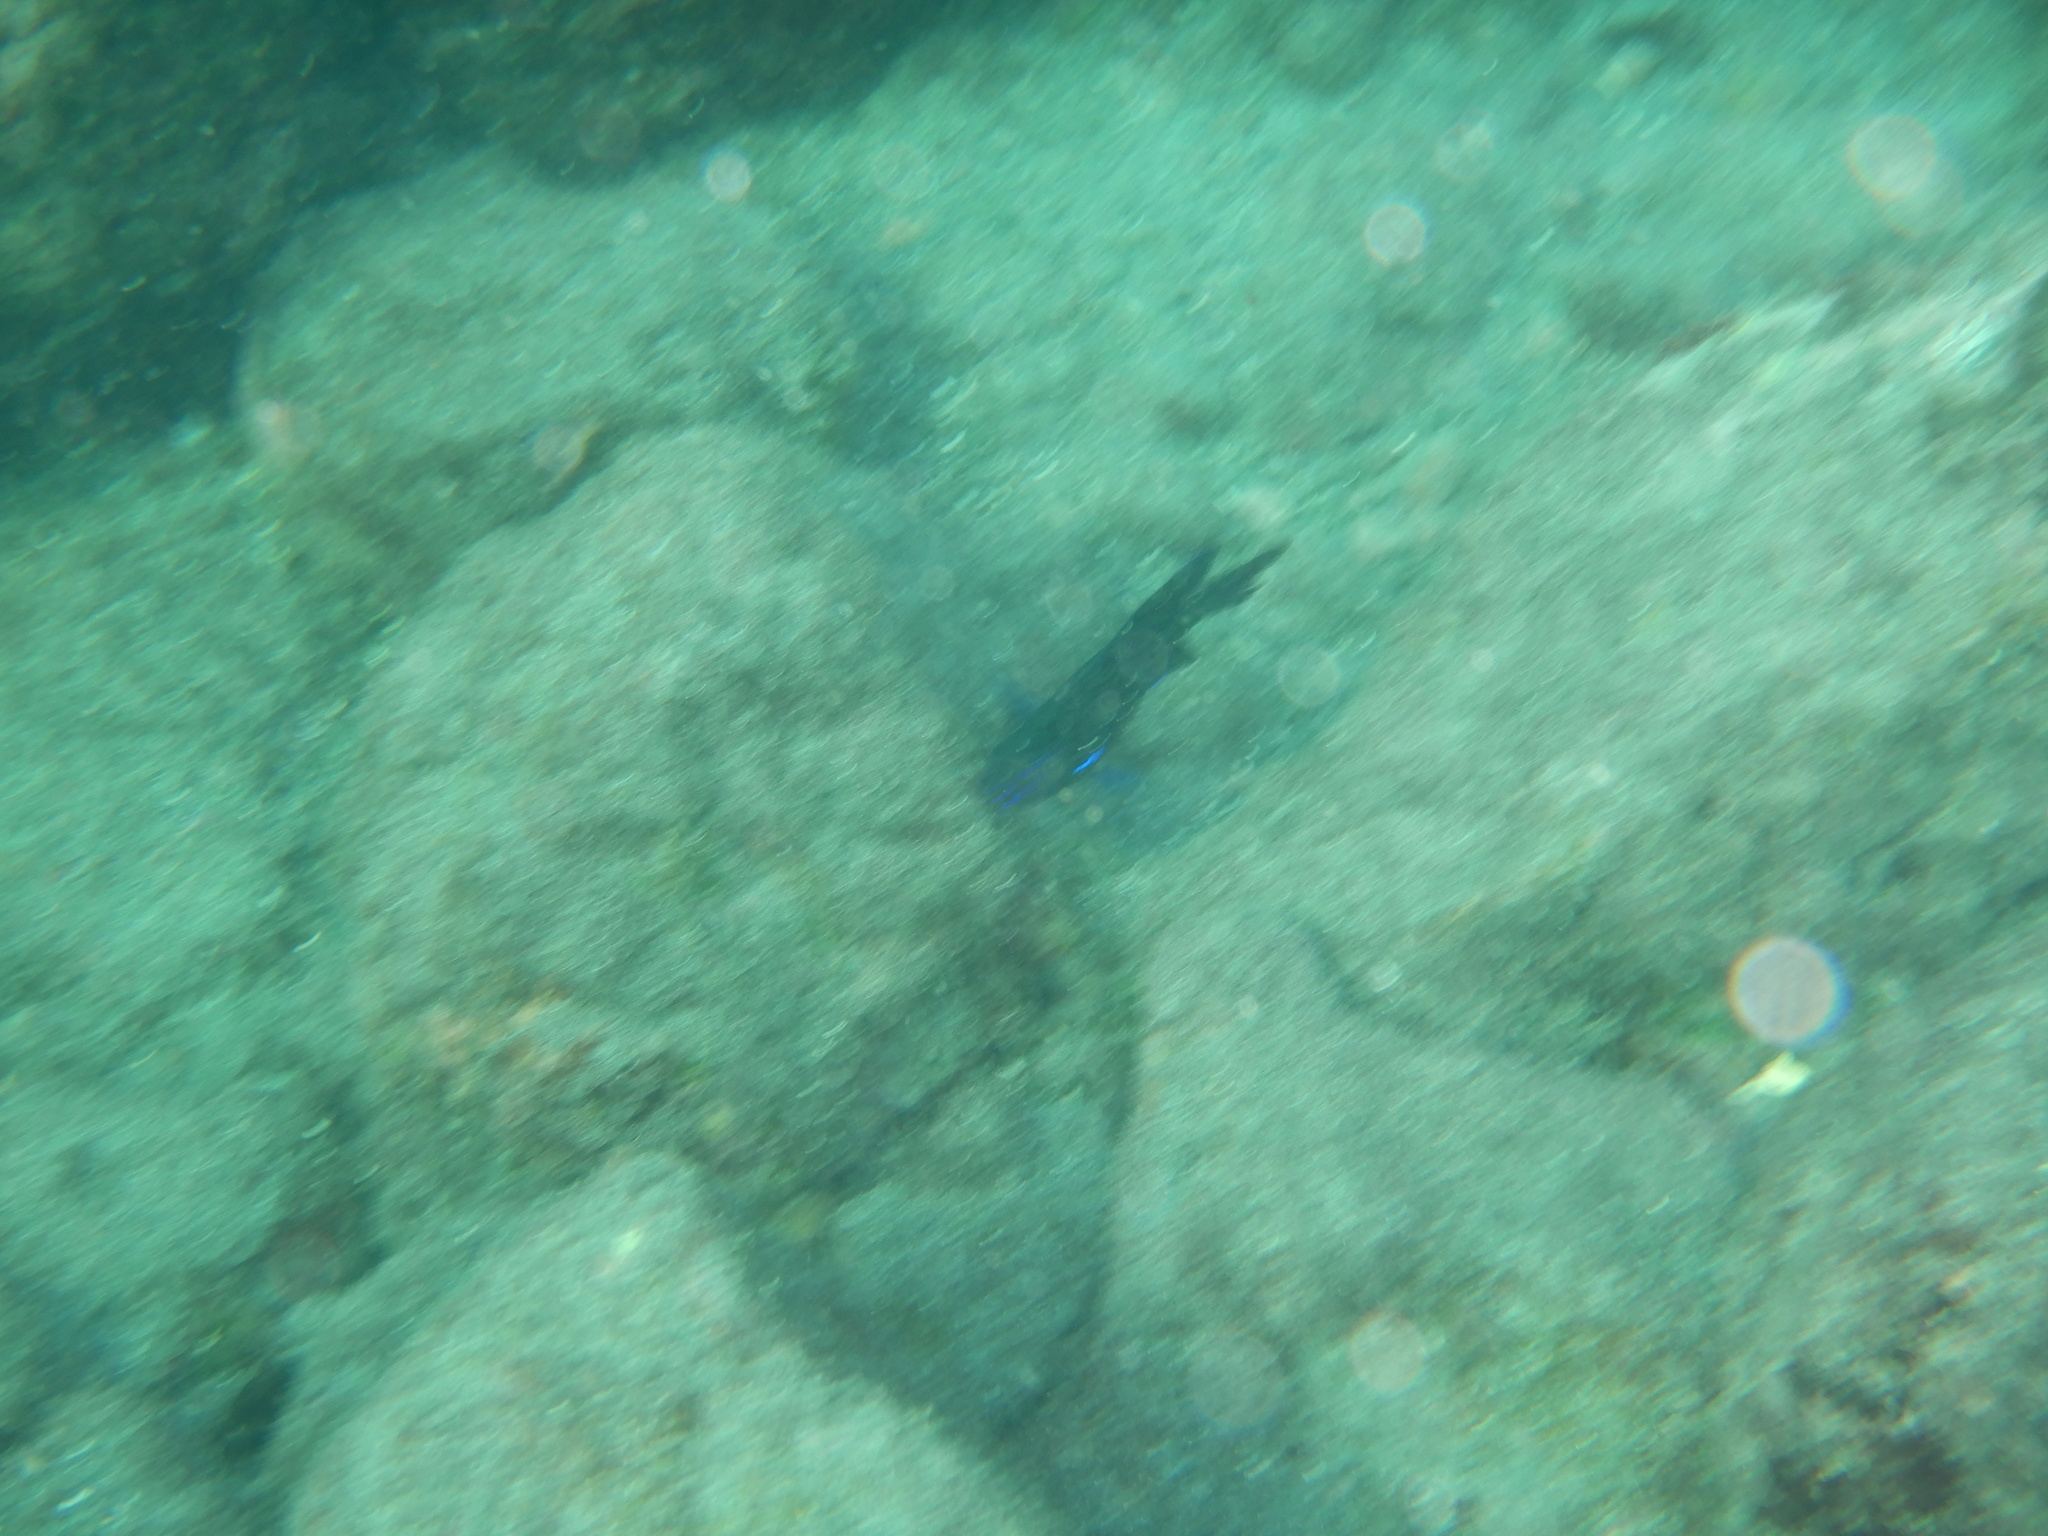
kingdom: Animalia
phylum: Chordata
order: Perciformes
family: Pomacentridae
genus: Similiparma
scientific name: Similiparma lurida
